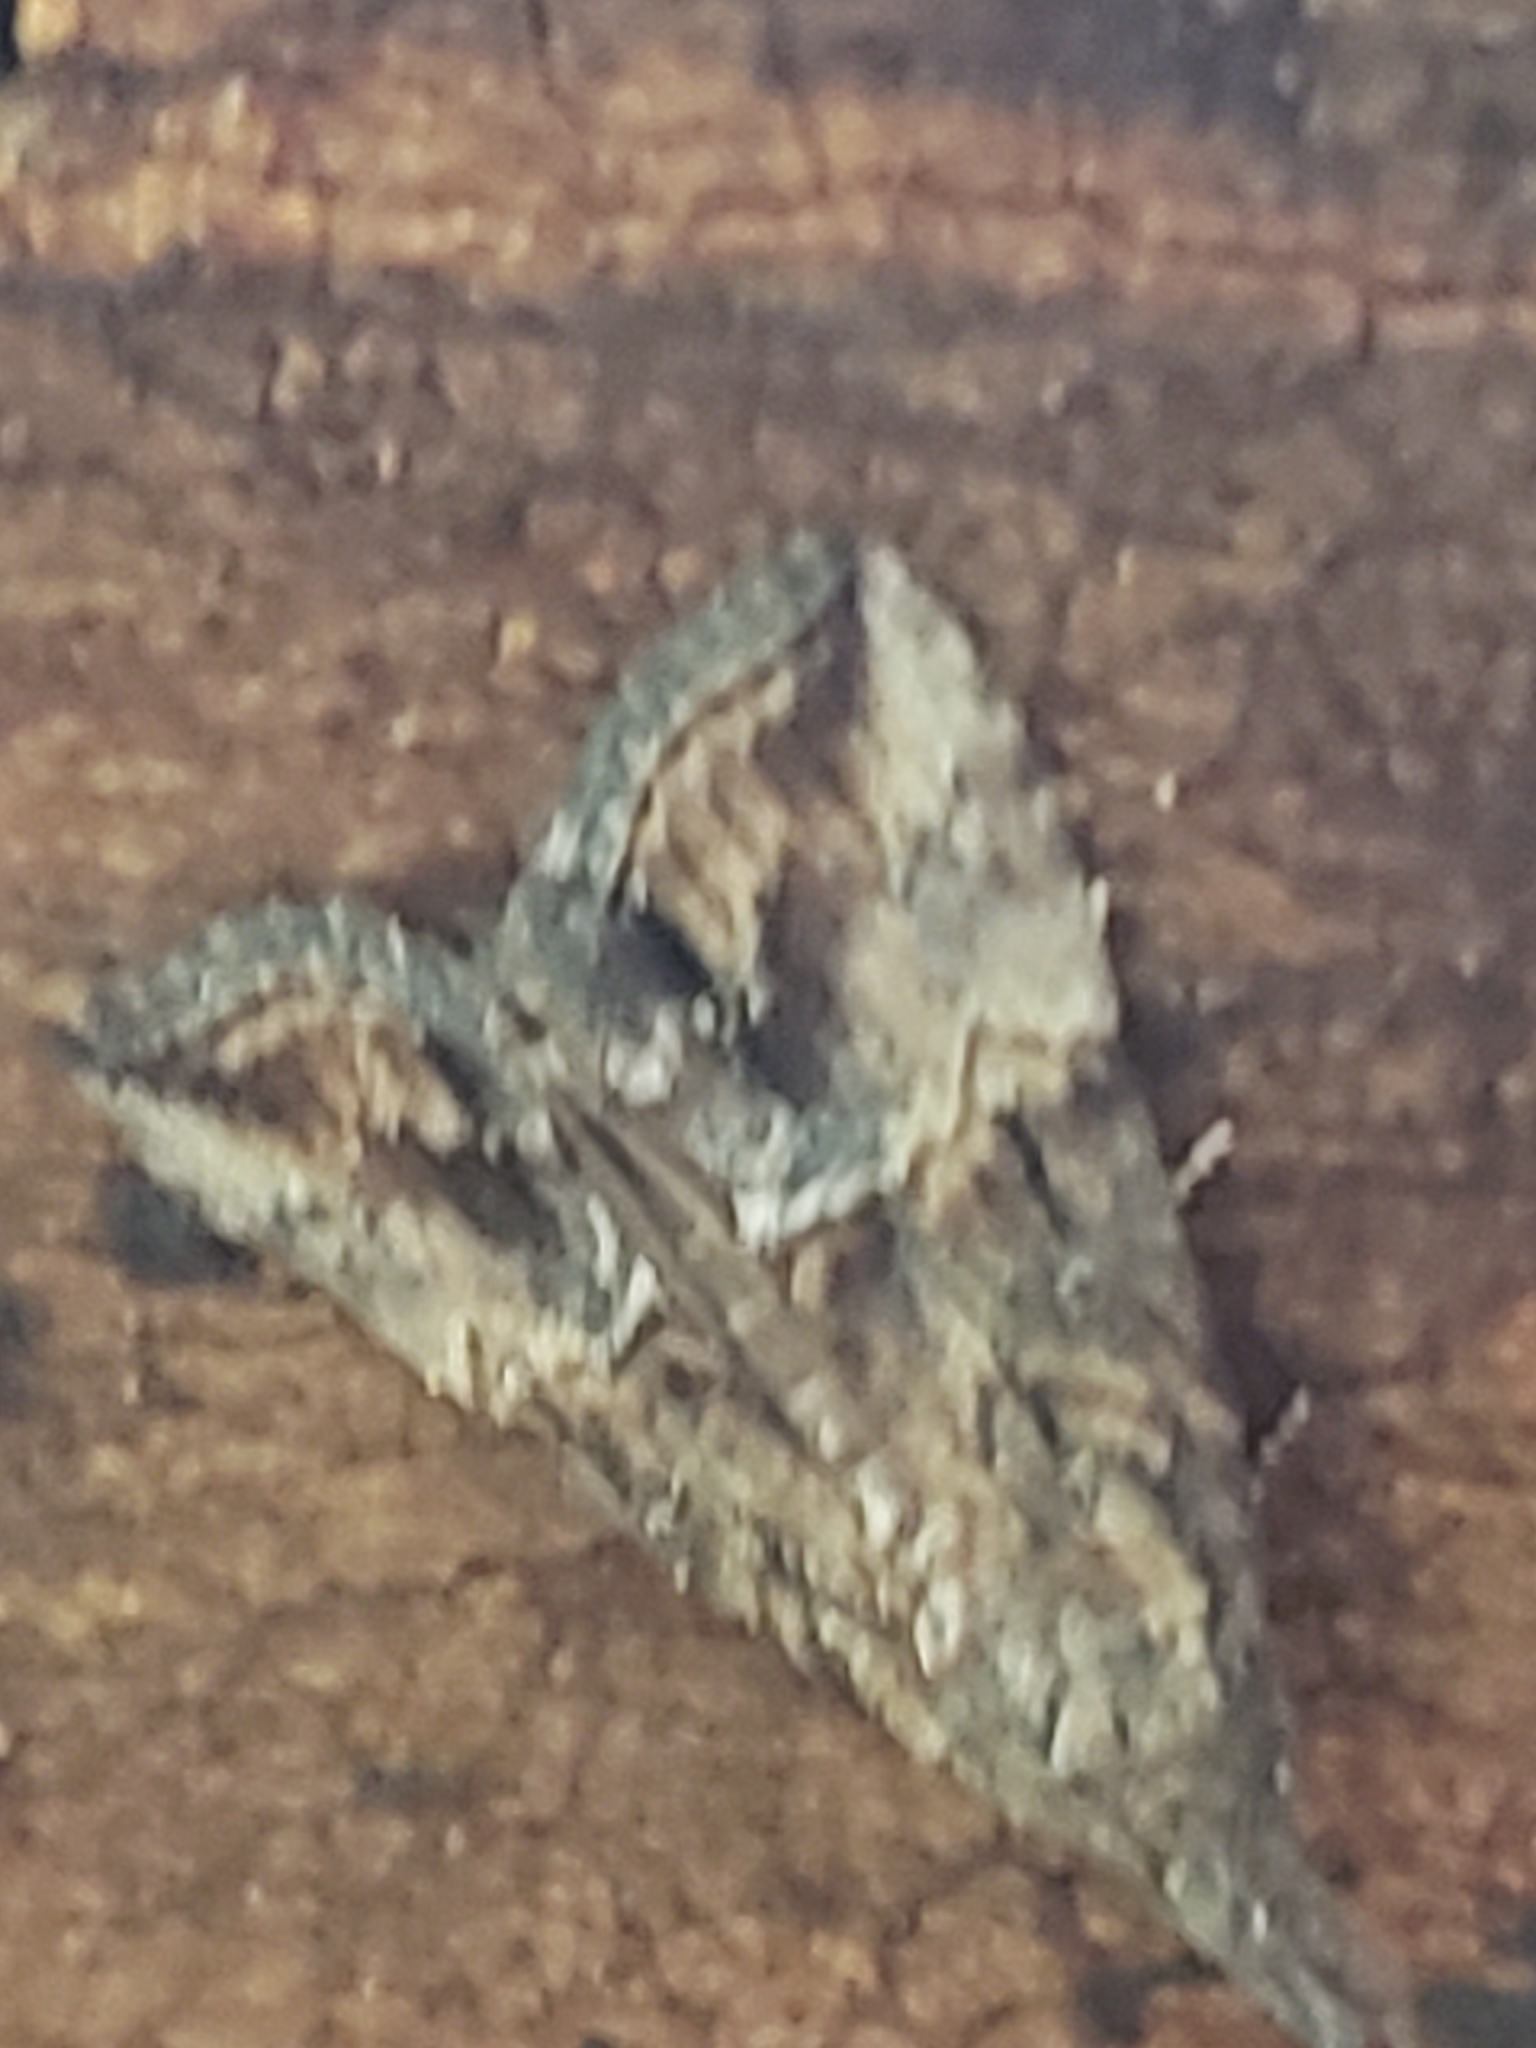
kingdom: Animalia
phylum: Arthropoda
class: Insecta
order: Lepidoptera
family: Erebidae
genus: Hypena
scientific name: Hypena scabra
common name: Green cloverworm
